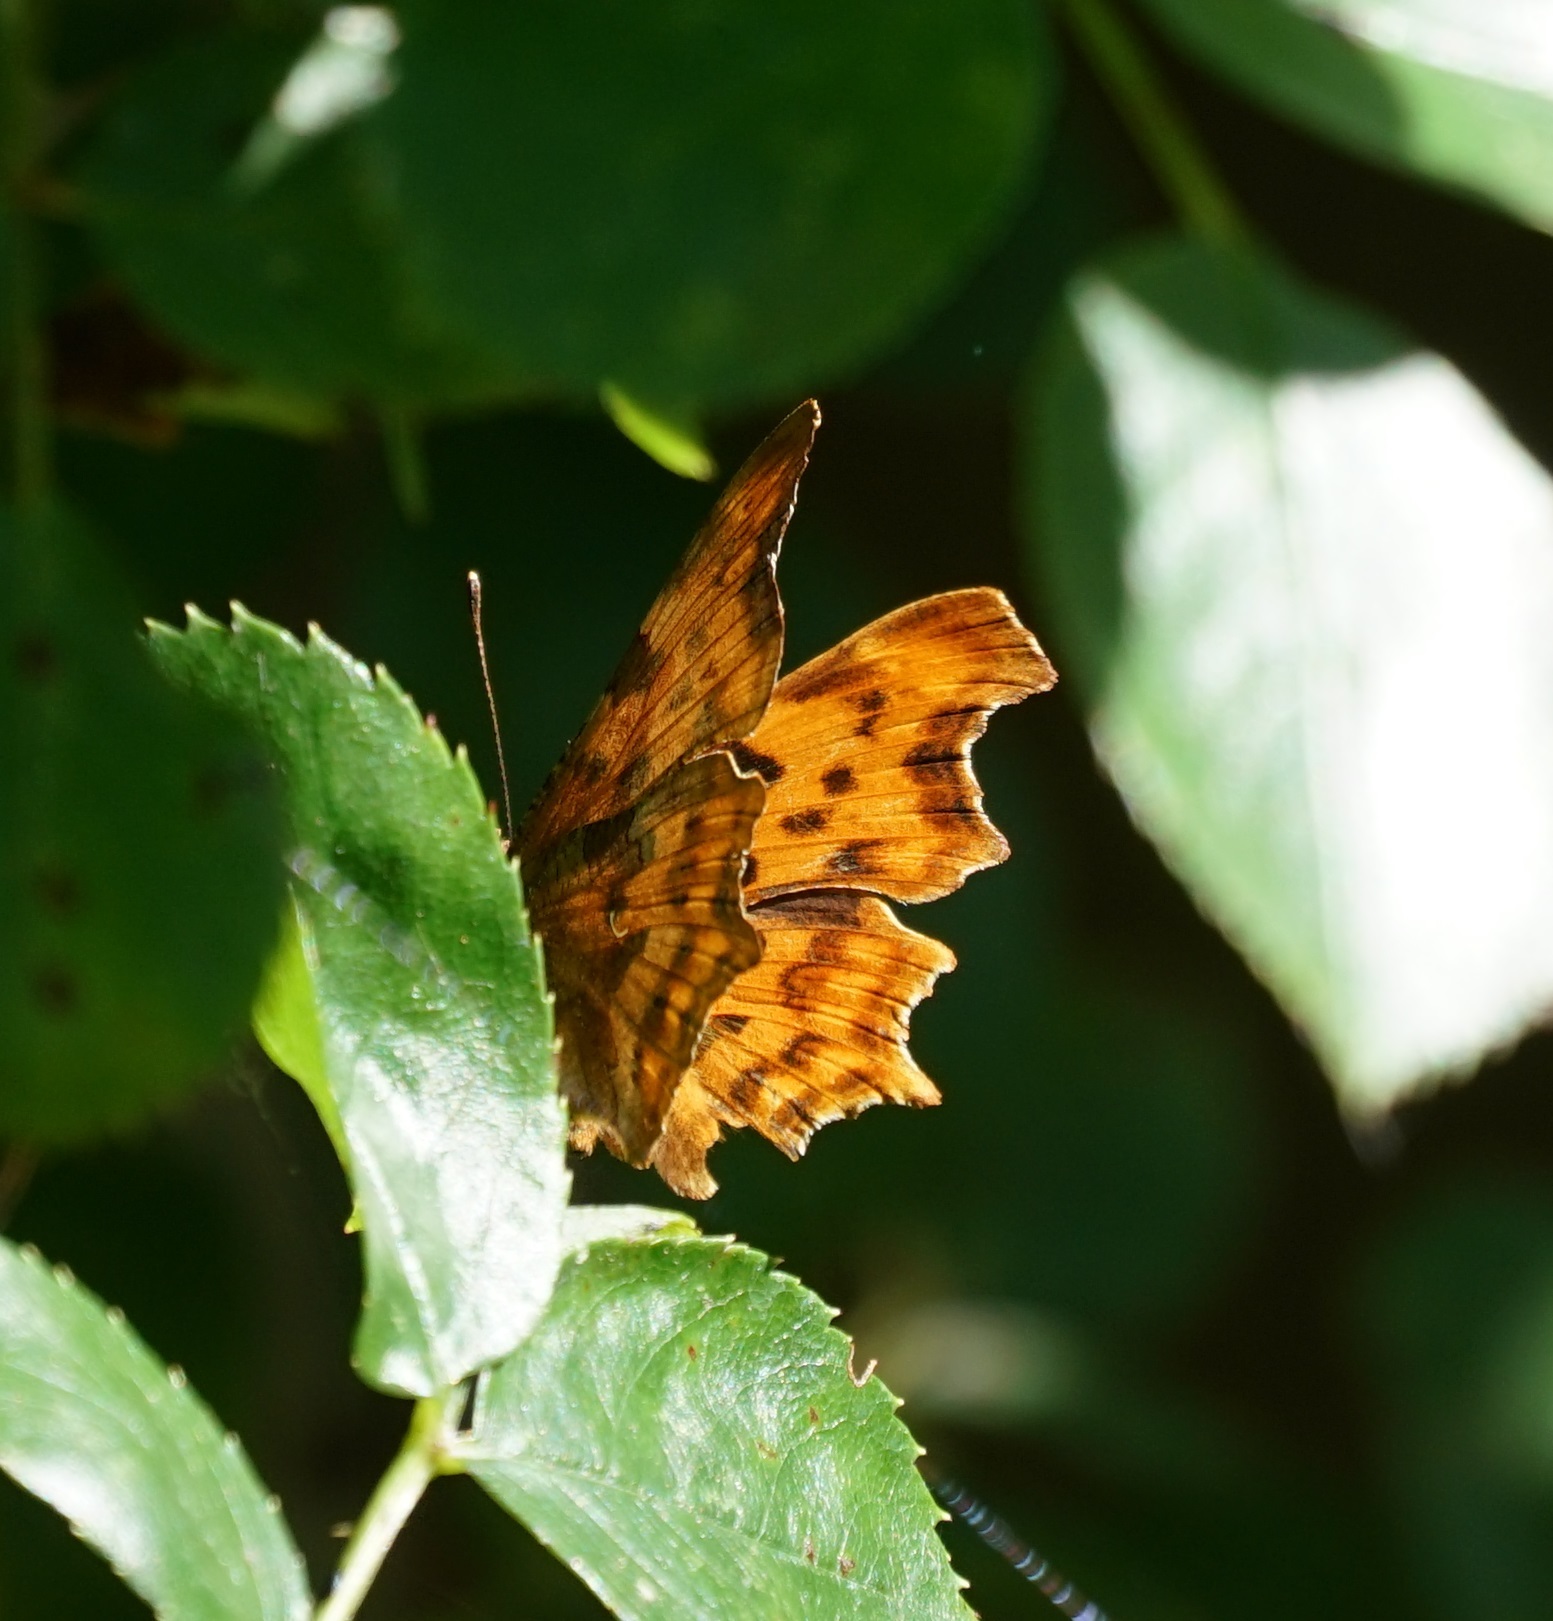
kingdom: Animalia
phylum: Arthropoda
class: Insecta
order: Lepidoptera
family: Nymphalidae
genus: Polygonia
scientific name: Polygonia c-album
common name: Comma
